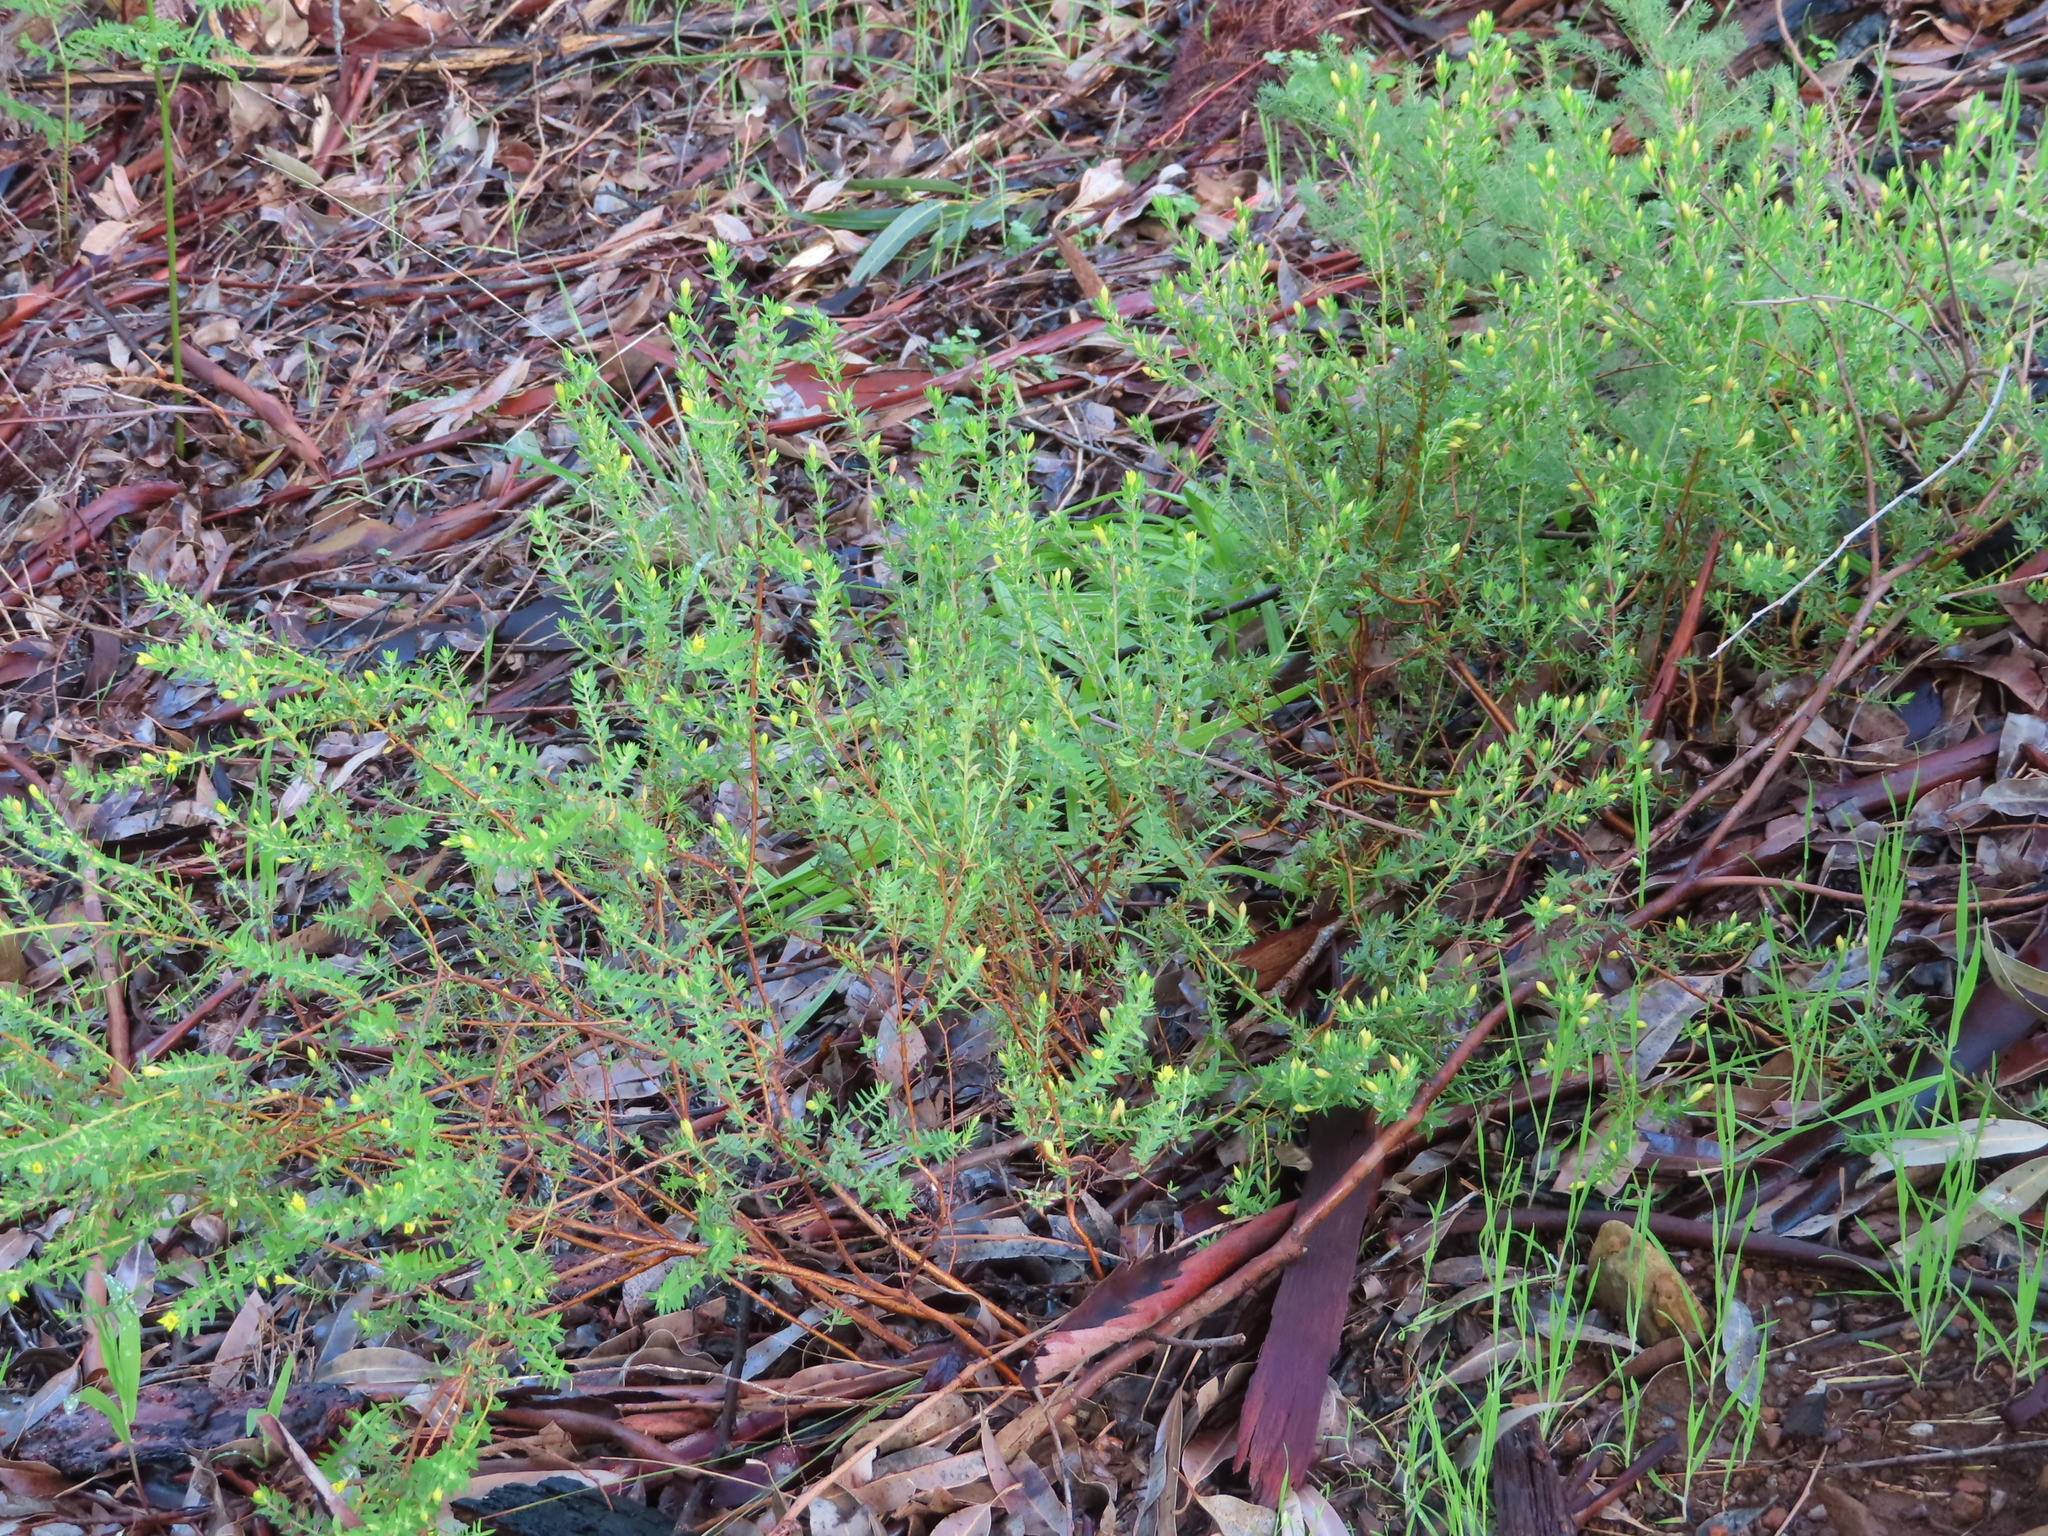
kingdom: Plantae
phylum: Tracheophyta
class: Magnoliopsida
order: Malvales
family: Thymelaeaceae
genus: Gnidia
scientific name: Gnidia juniperifolia
